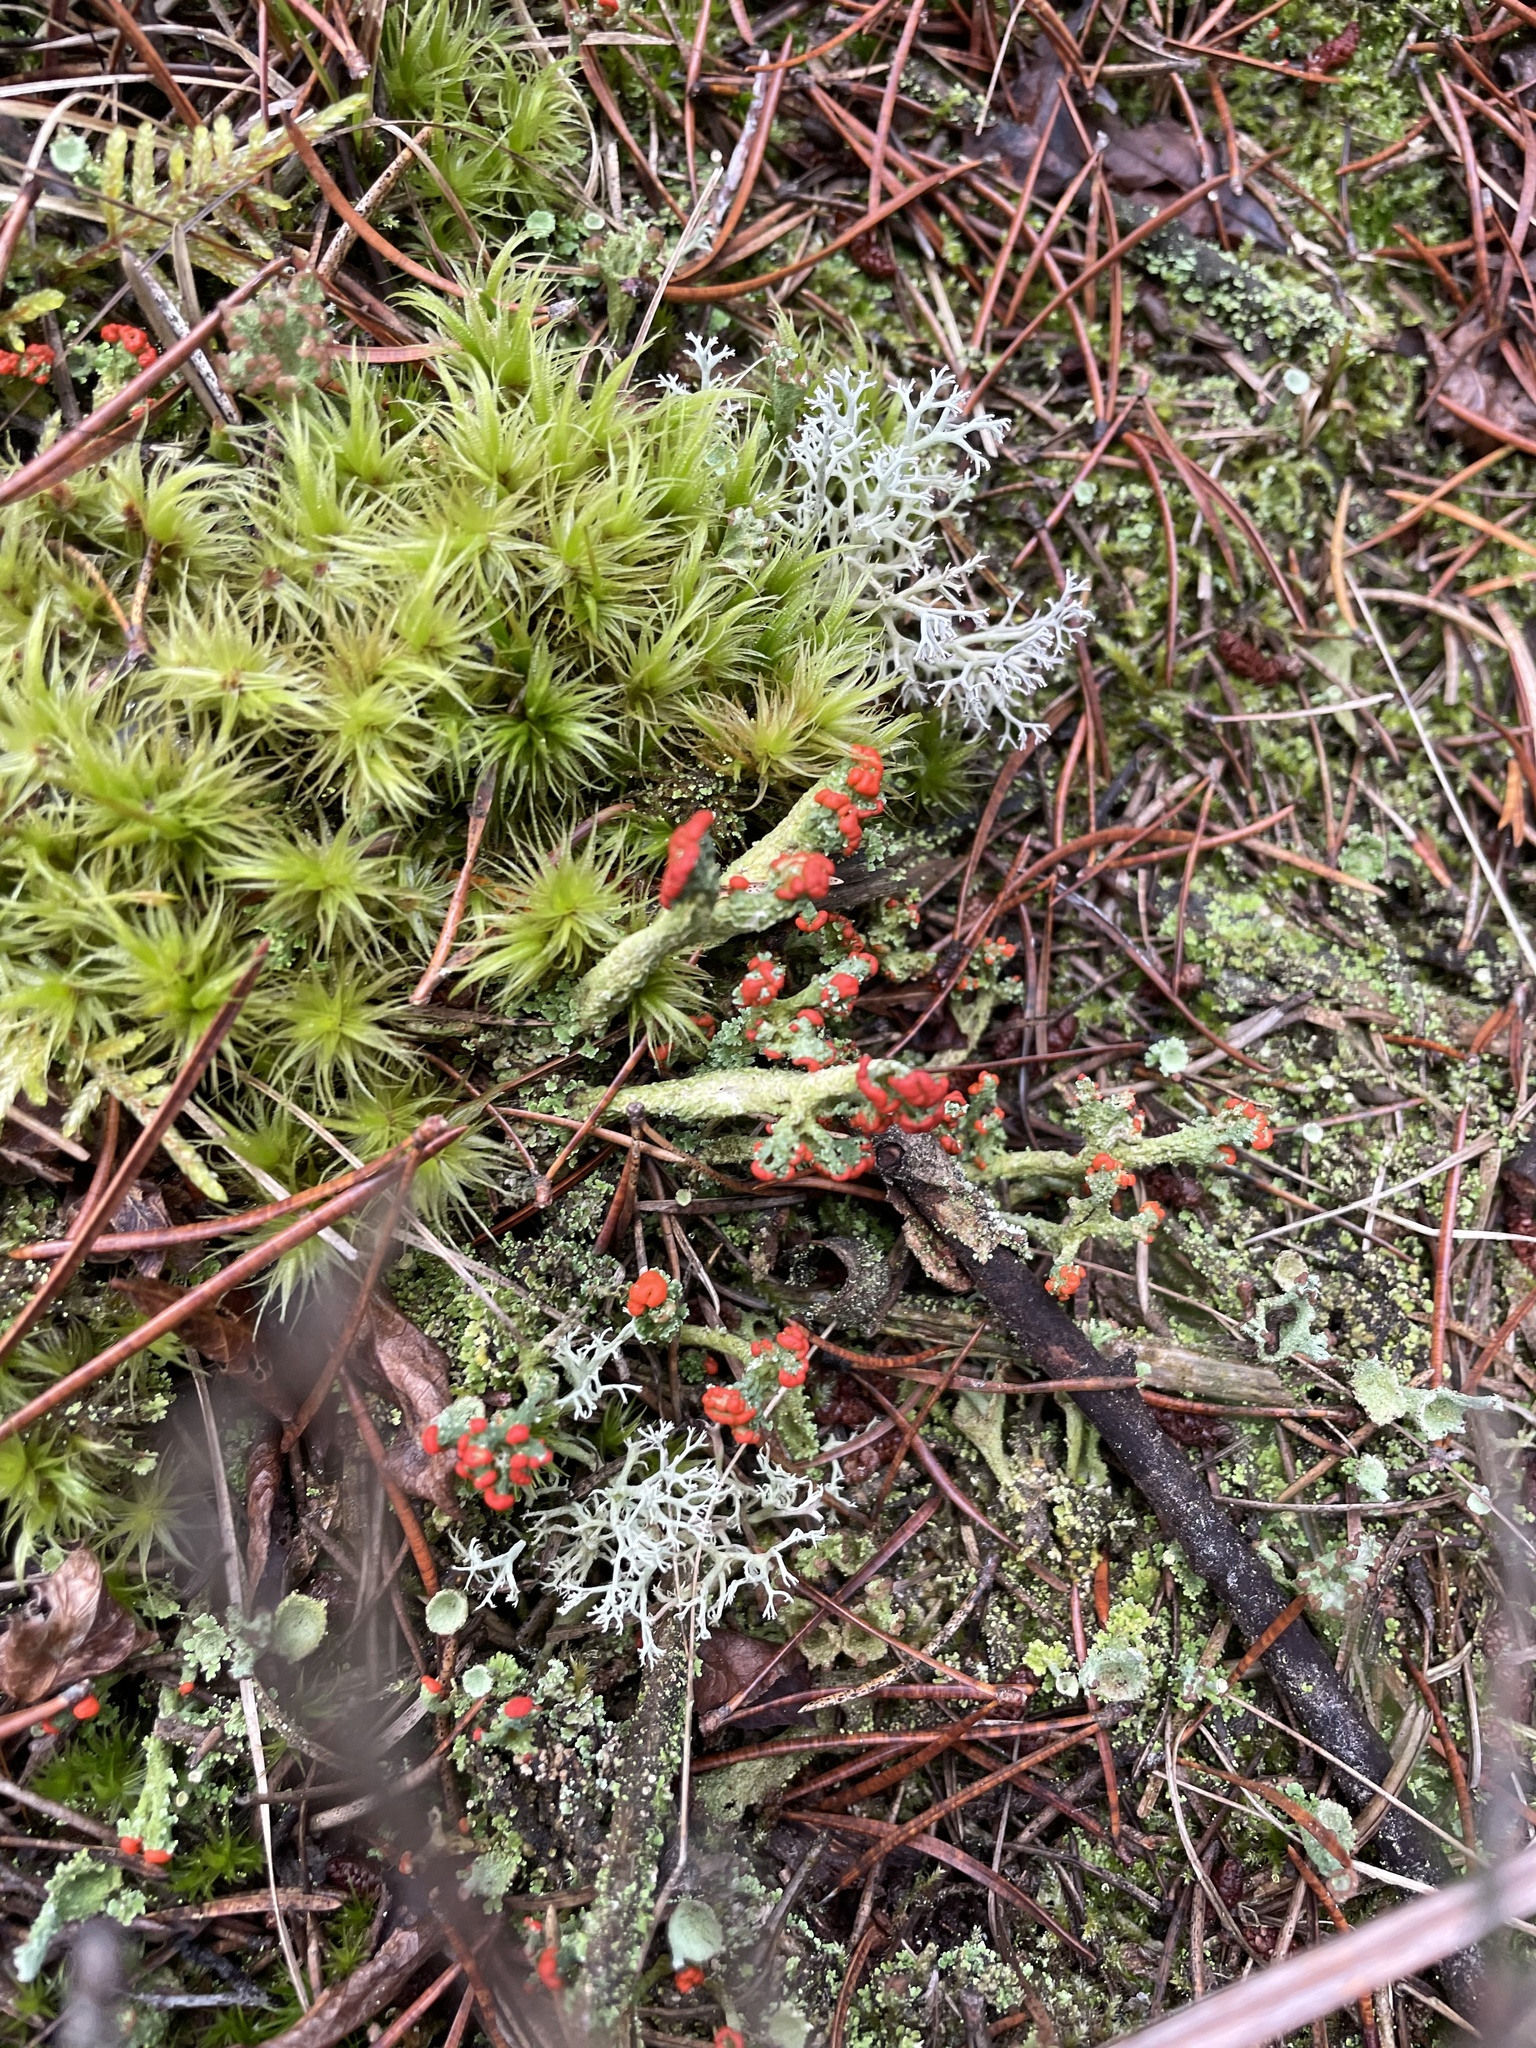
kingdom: Fungi
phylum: Ascomycota
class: Lecanoromycetes
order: Lecanorales
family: Cladoniaceae
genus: Cladonia
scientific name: Cladonia cristatella
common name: British soldier lichen
